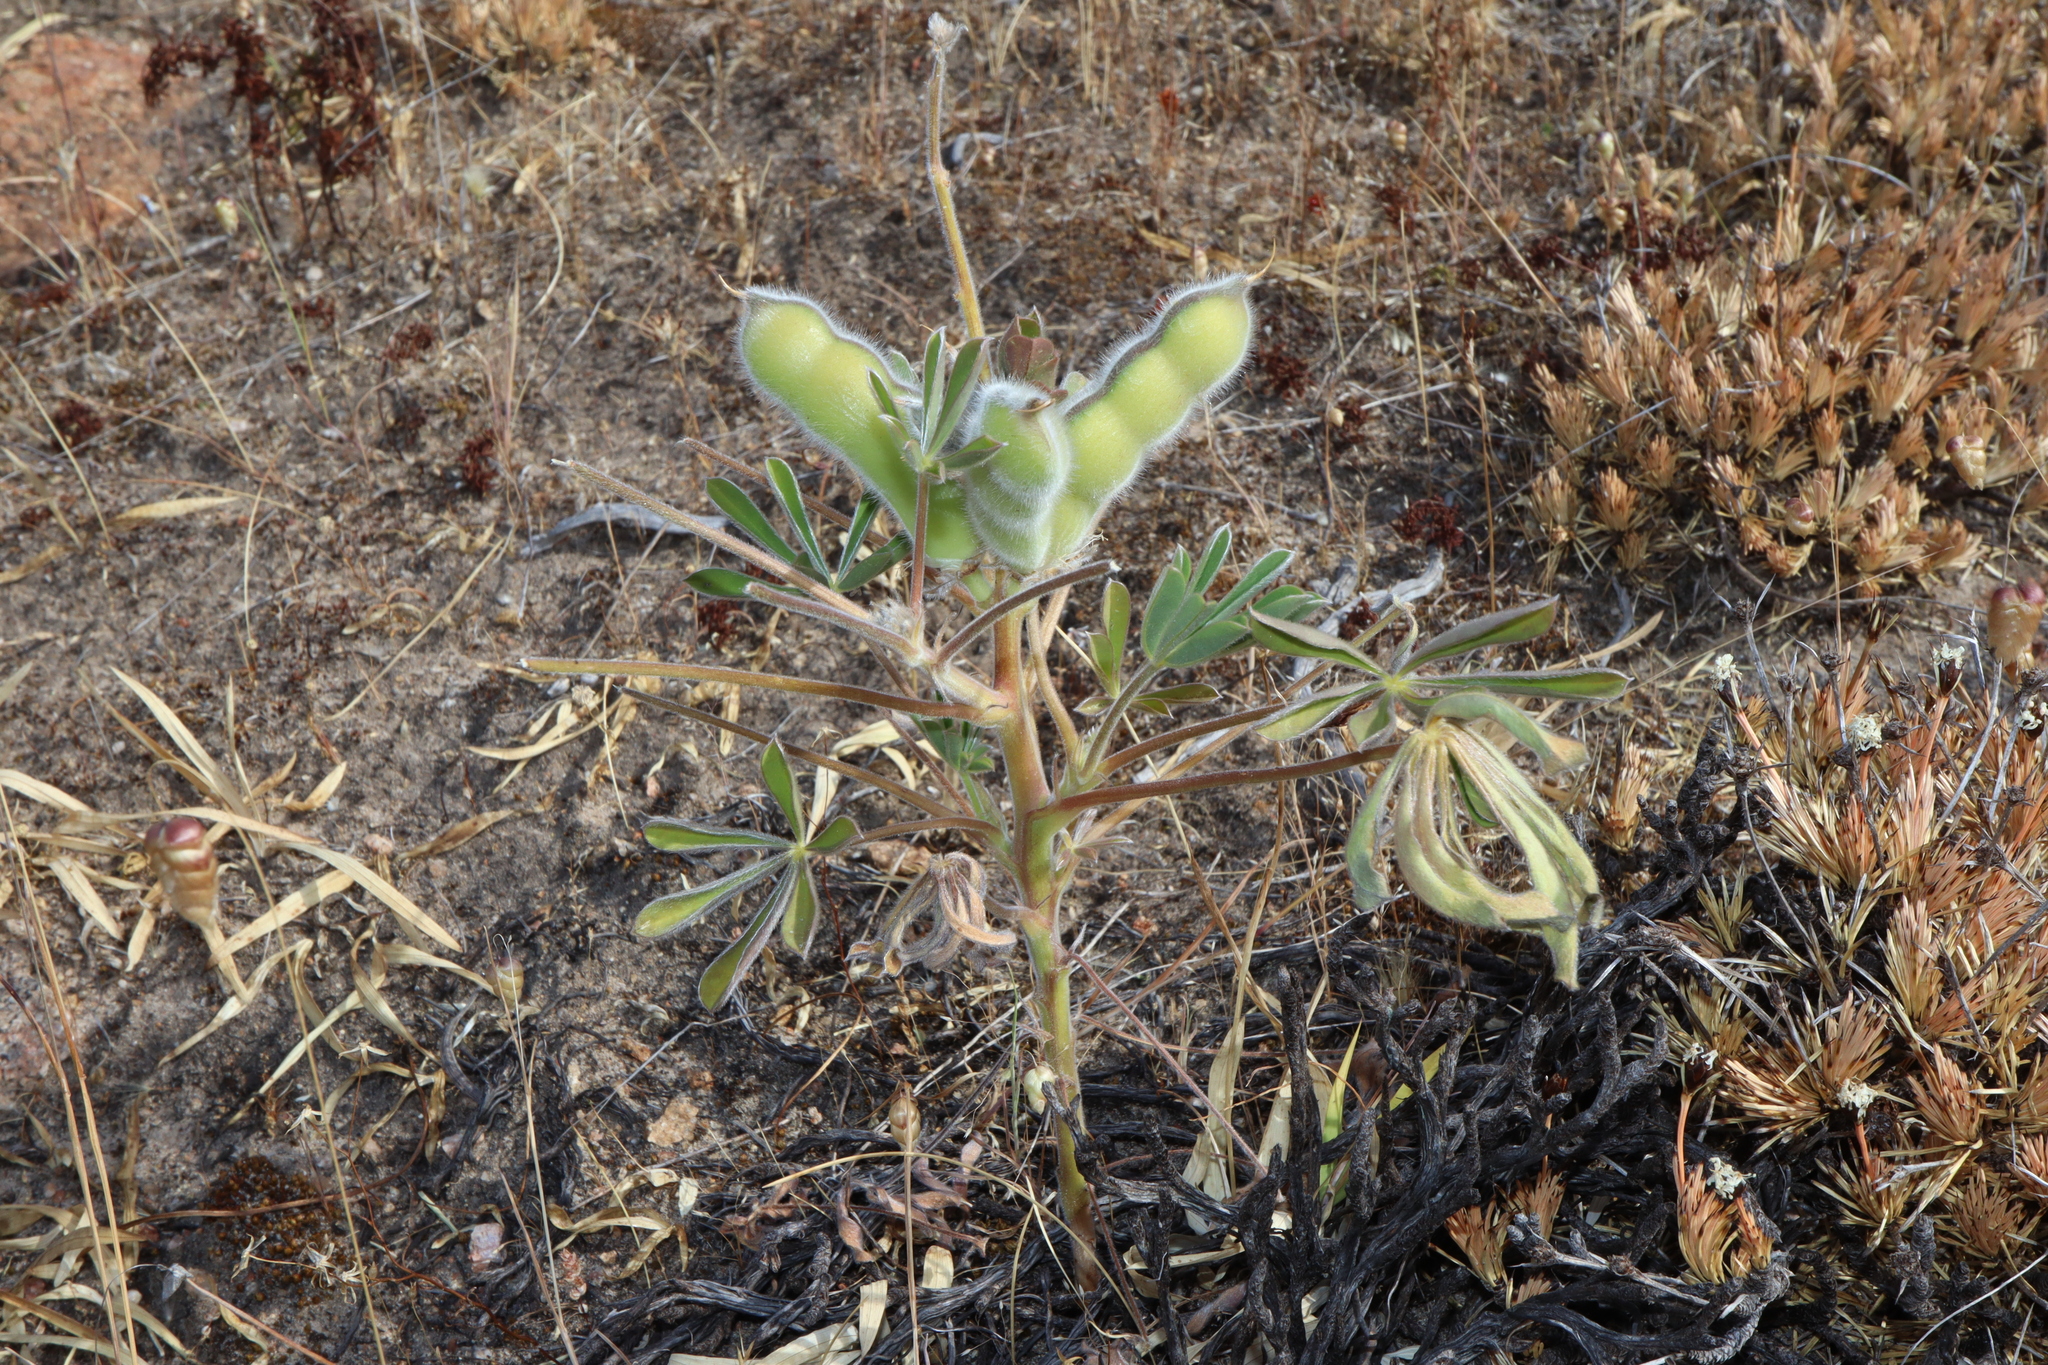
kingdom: Plantae
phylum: Tracheophyta
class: Magnoliopsida
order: Fabales
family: Fabaceae
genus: Lupinus
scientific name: Lupinus cosentinii
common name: Hairy blue lupin
